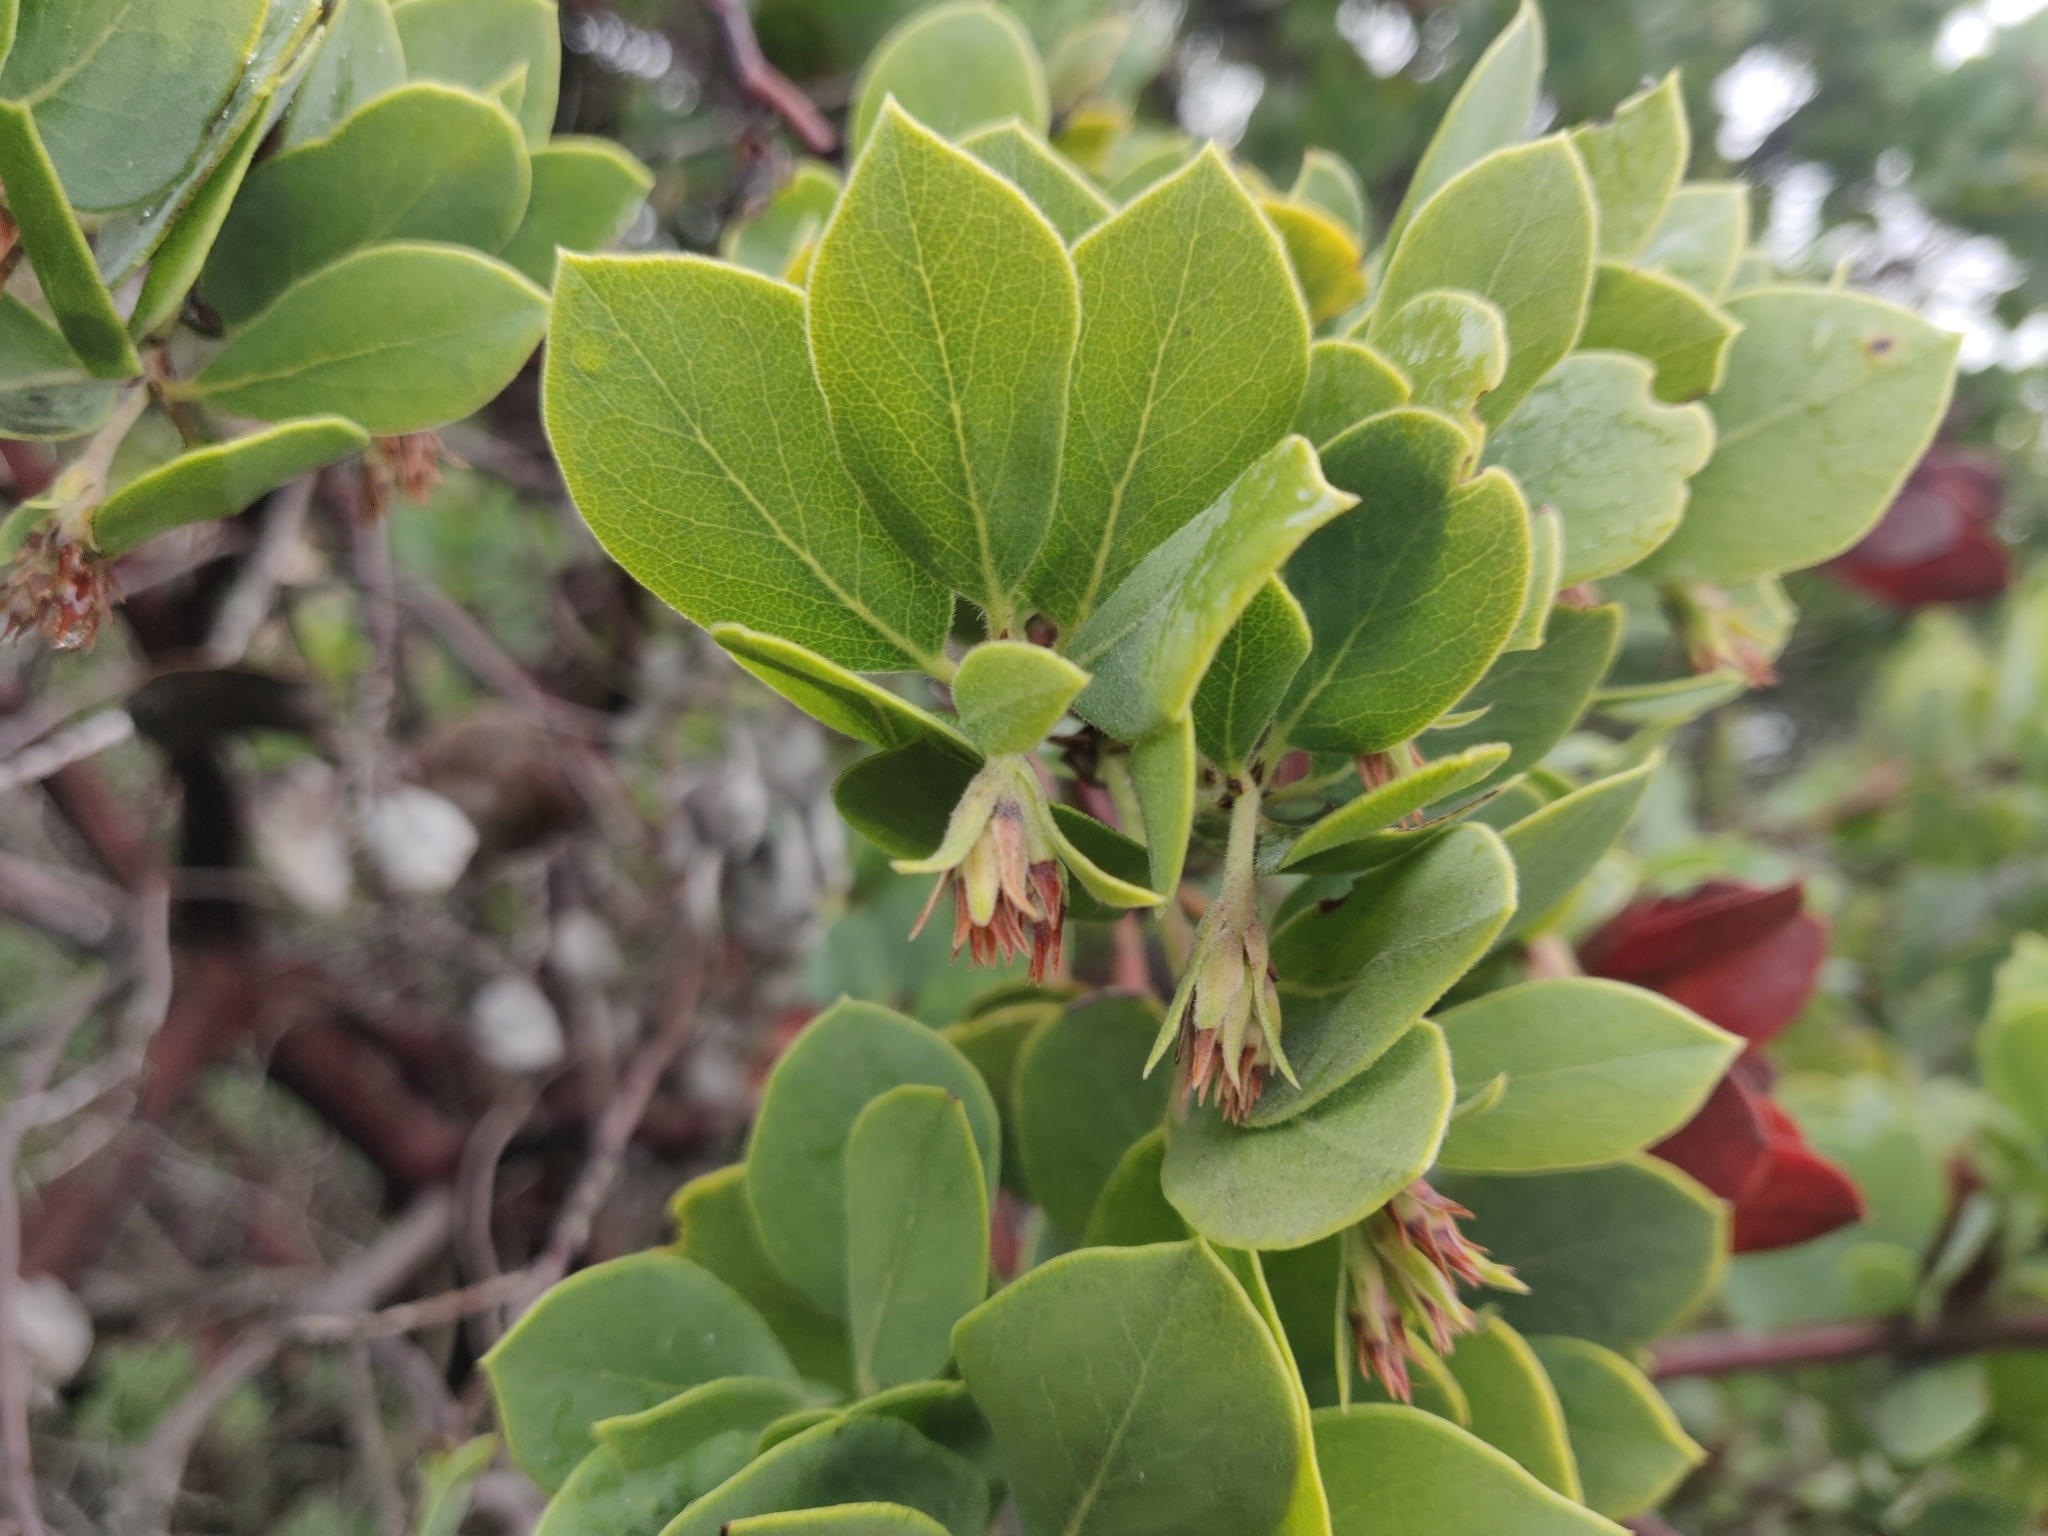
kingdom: Plantae
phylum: Tracheophyta
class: Magnoliopsida
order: Ericales
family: Ericaceae
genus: Arctostaphylos
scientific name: Arctostaphylos crustacea
